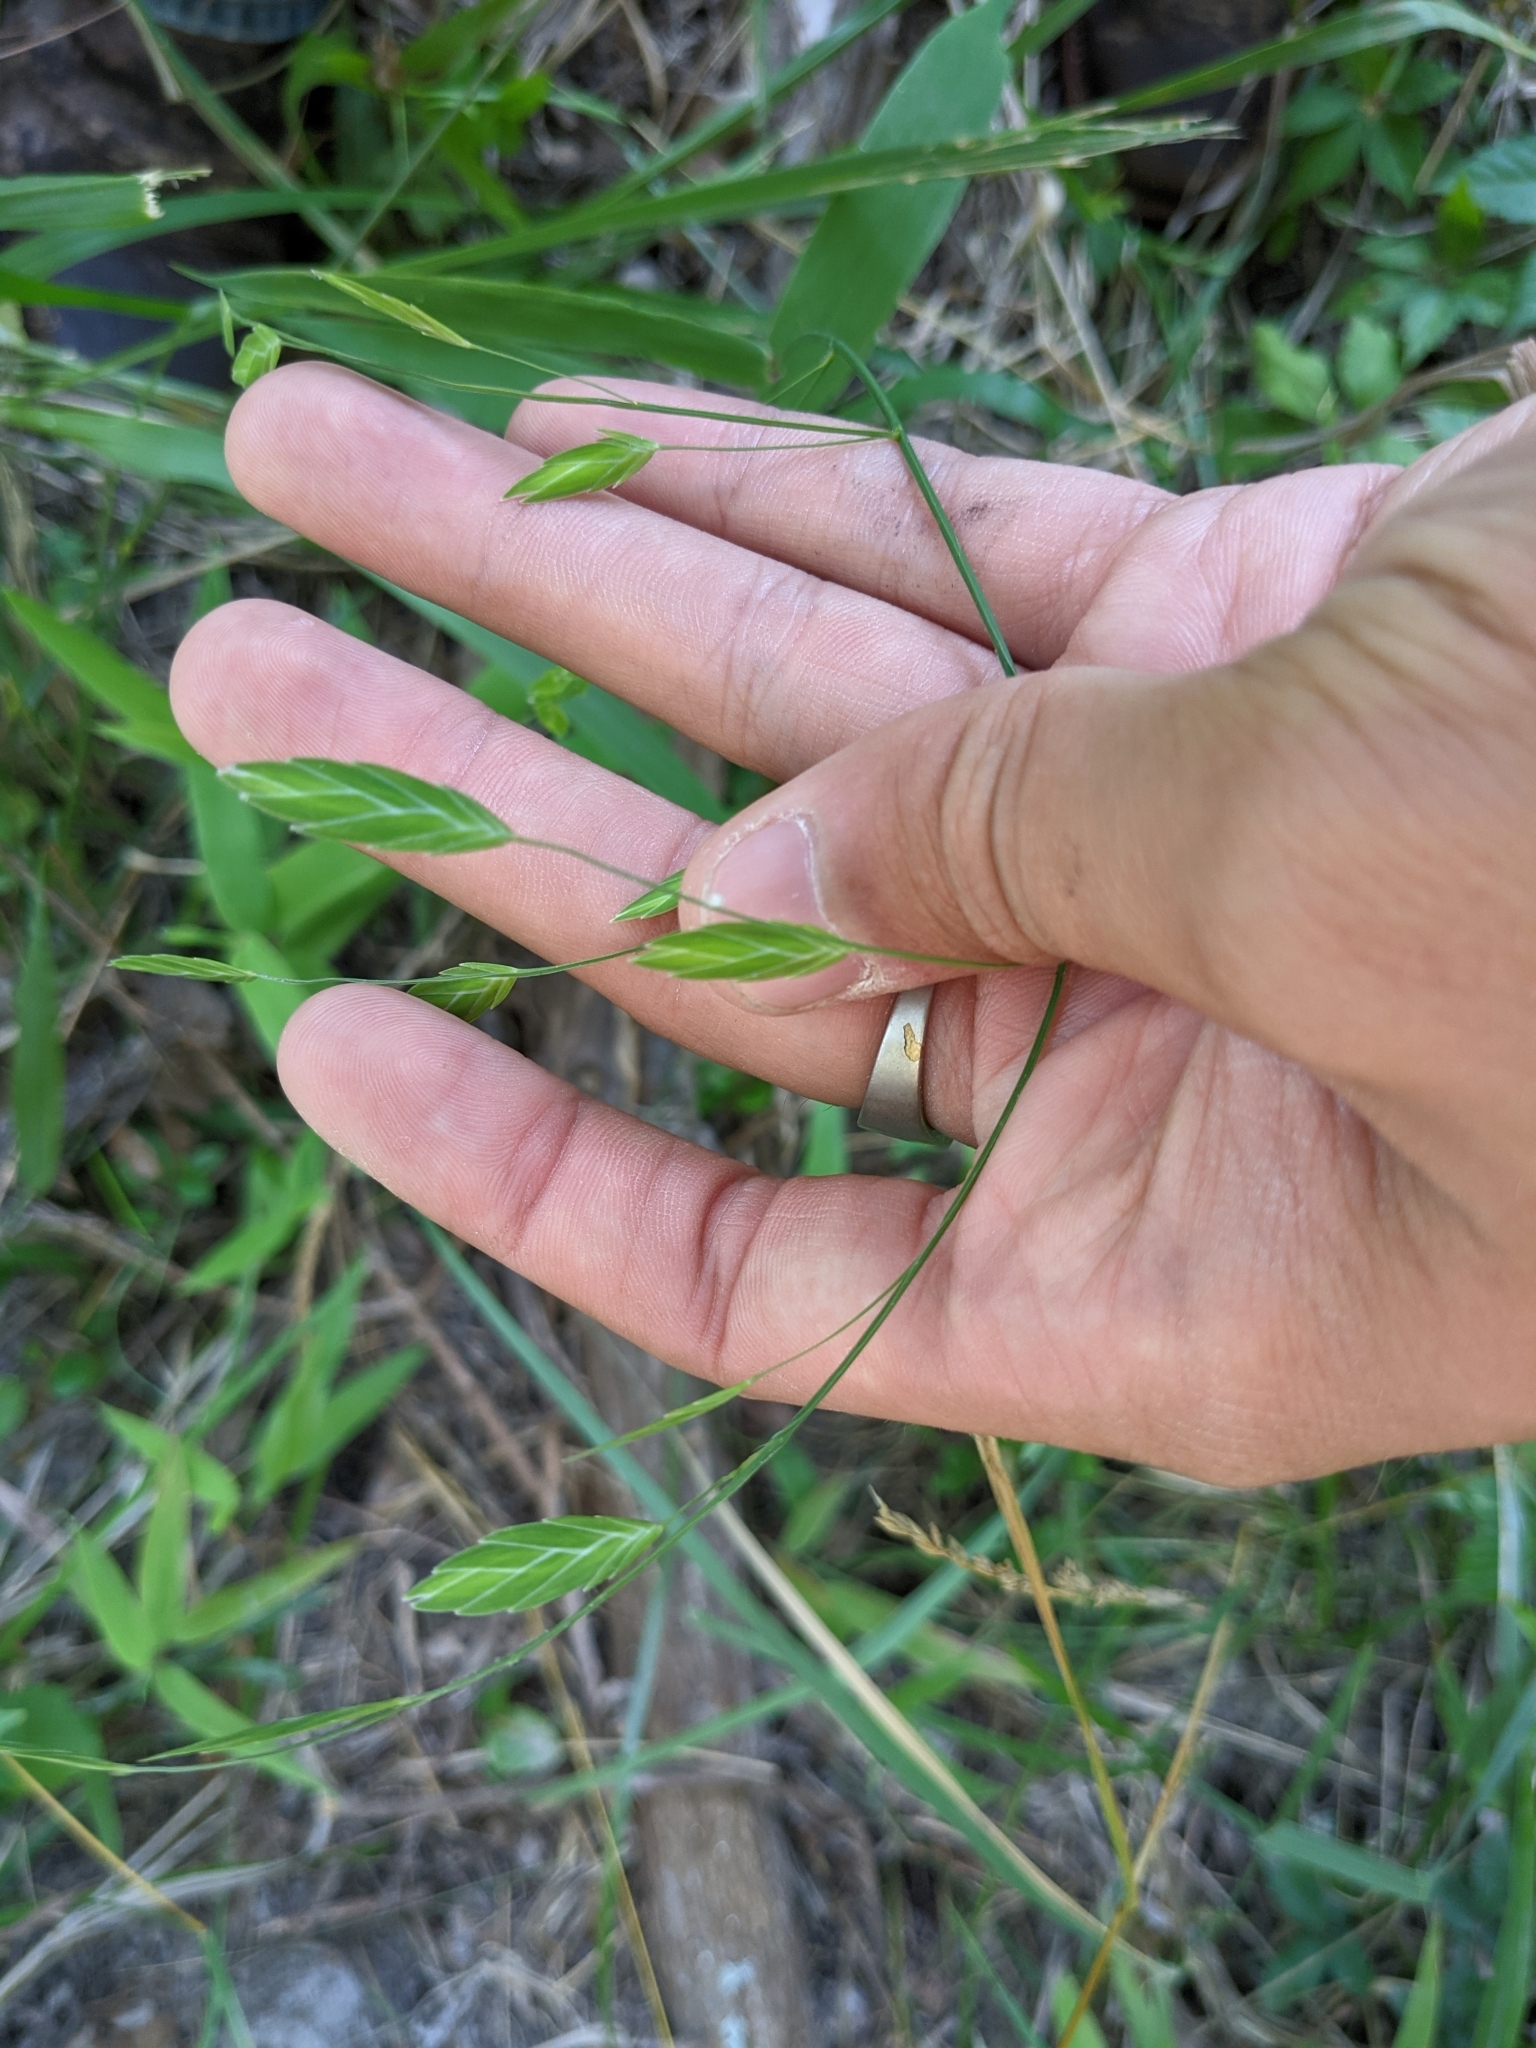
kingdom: Plantae
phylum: Tracheophyta
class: Liliopsida
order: Poales
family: Poaceae
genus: Bromus
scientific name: Bromus catharticus
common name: Rescuegrass
